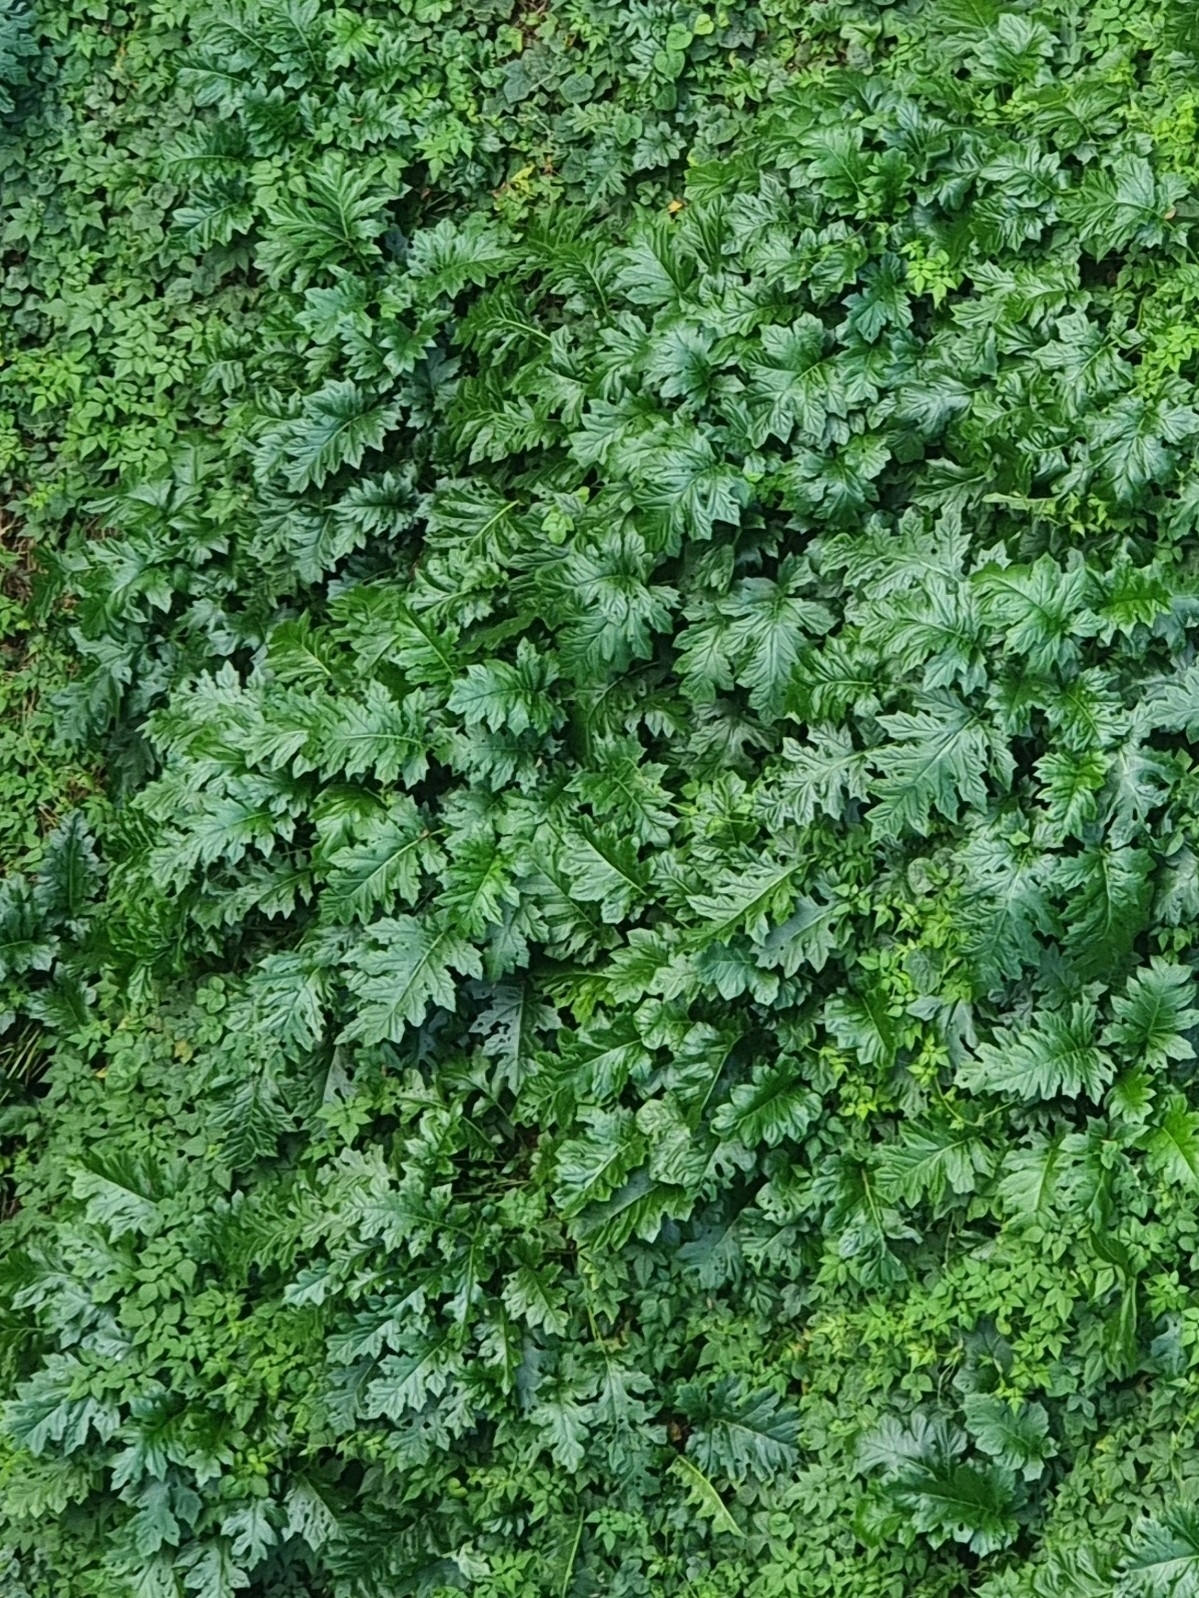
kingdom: Plantae
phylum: Tracheophyta
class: Magnoliopsida
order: Lamiales
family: Acanthaceae
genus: Acanthus
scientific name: Acanthus mollis
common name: Bear's-breech
